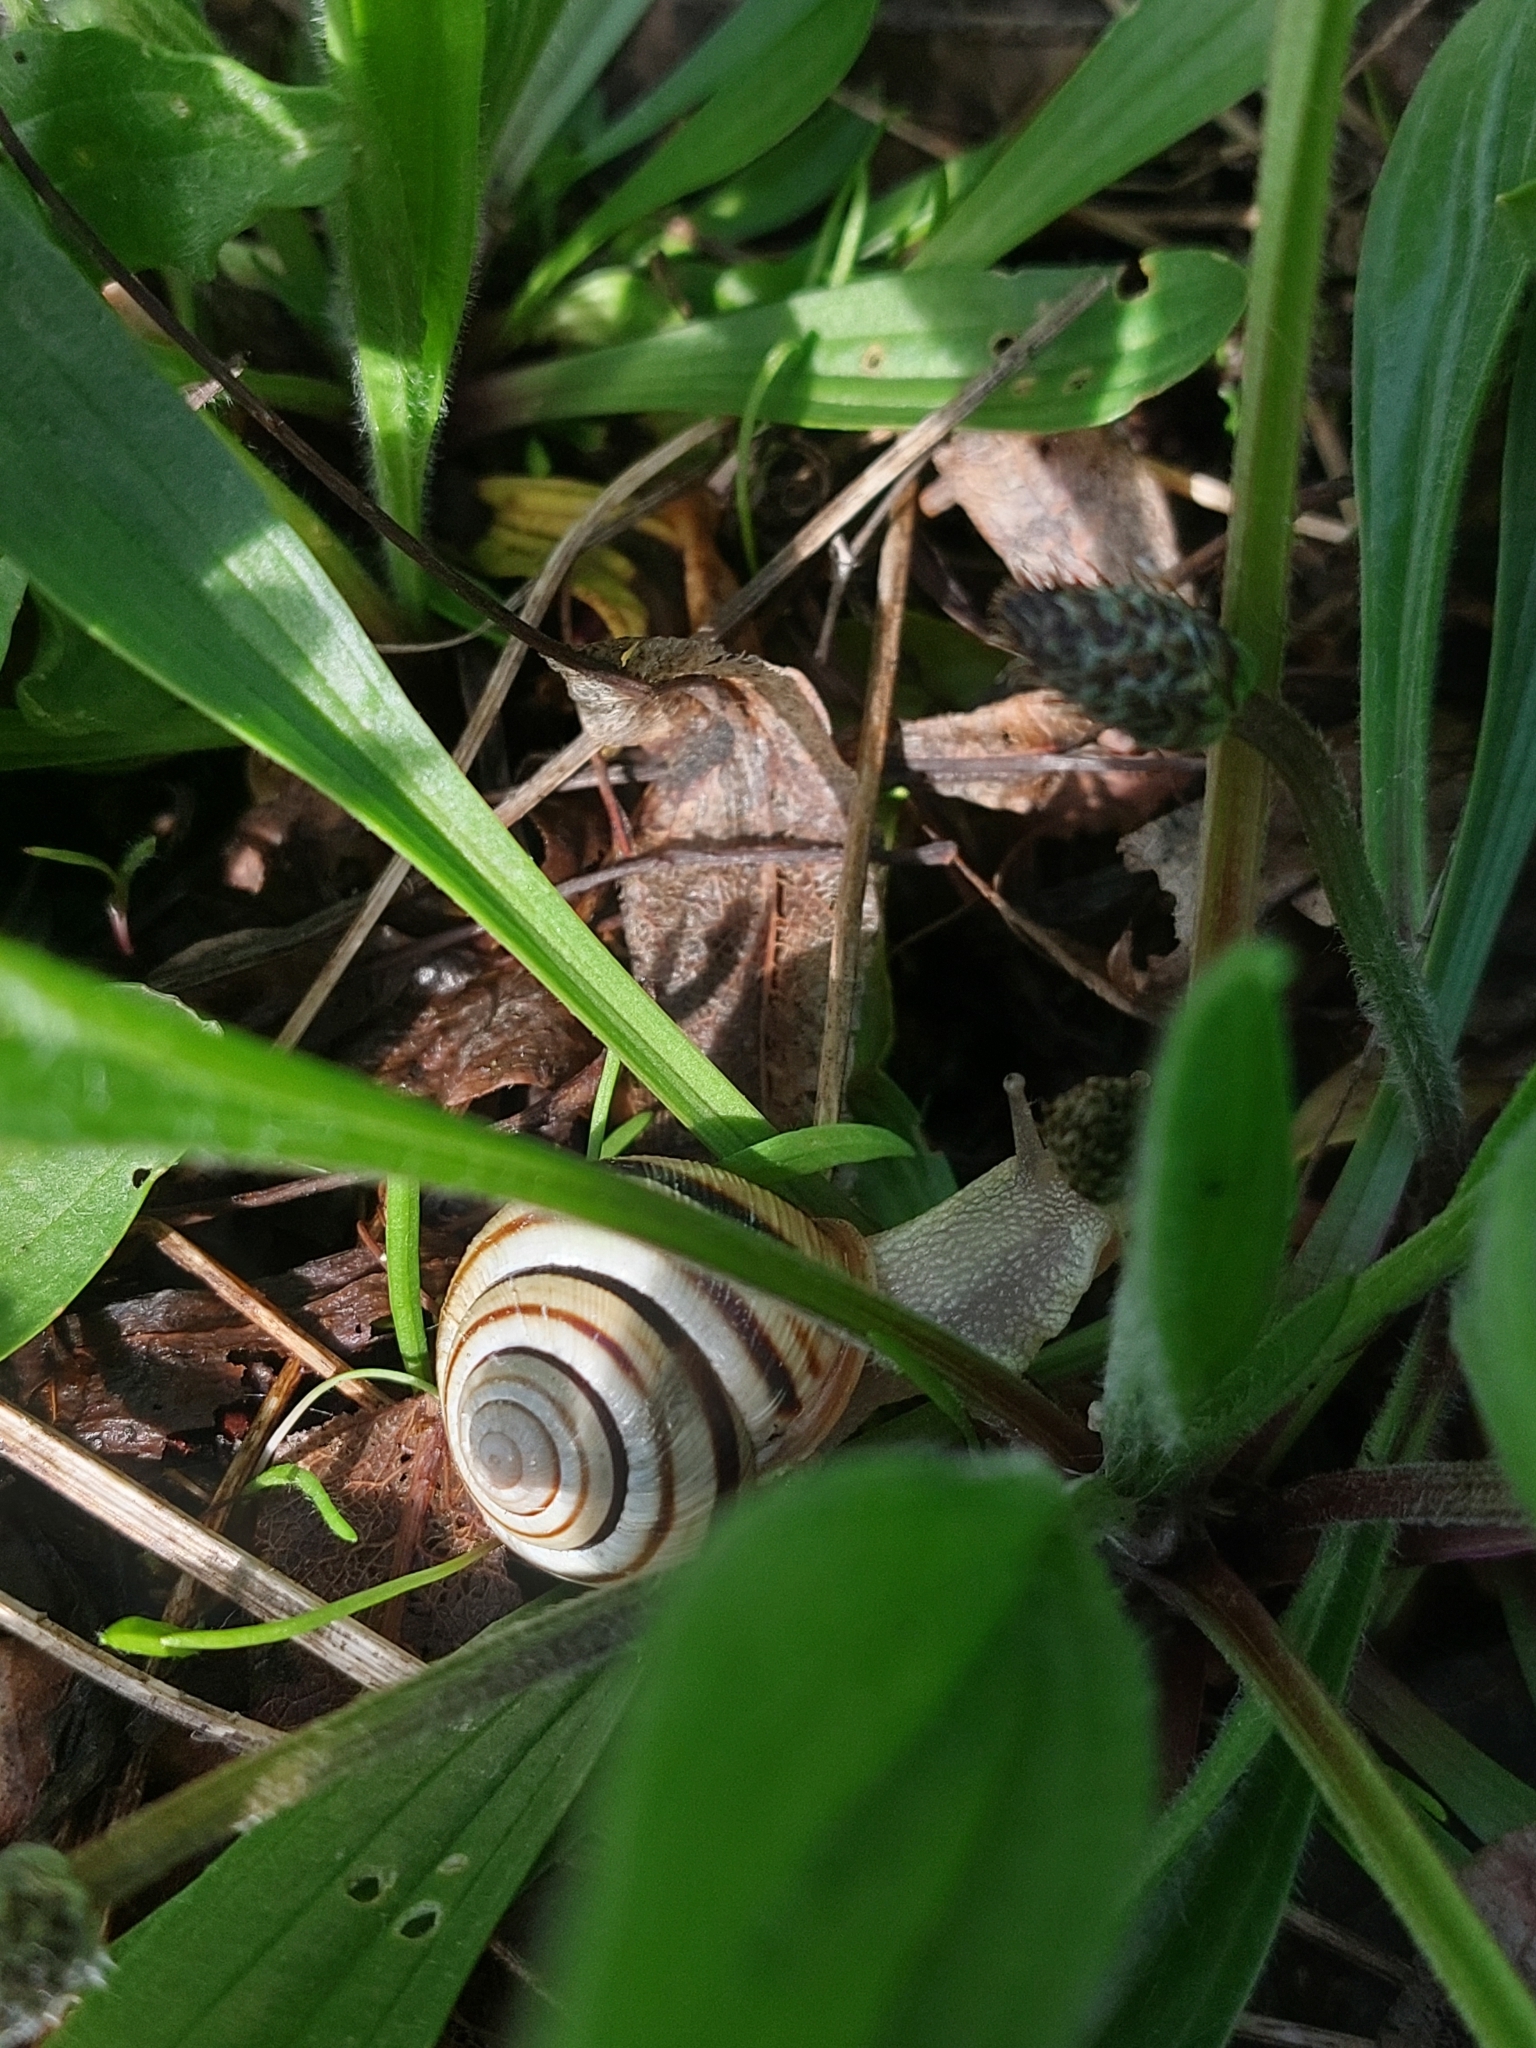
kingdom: Animalia
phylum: Mollusca
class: Gastropoda
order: Stylommatophora
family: Helicidae
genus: Caucasotachea
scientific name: Caucasotachea vindobonensis
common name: European helicid land snail
